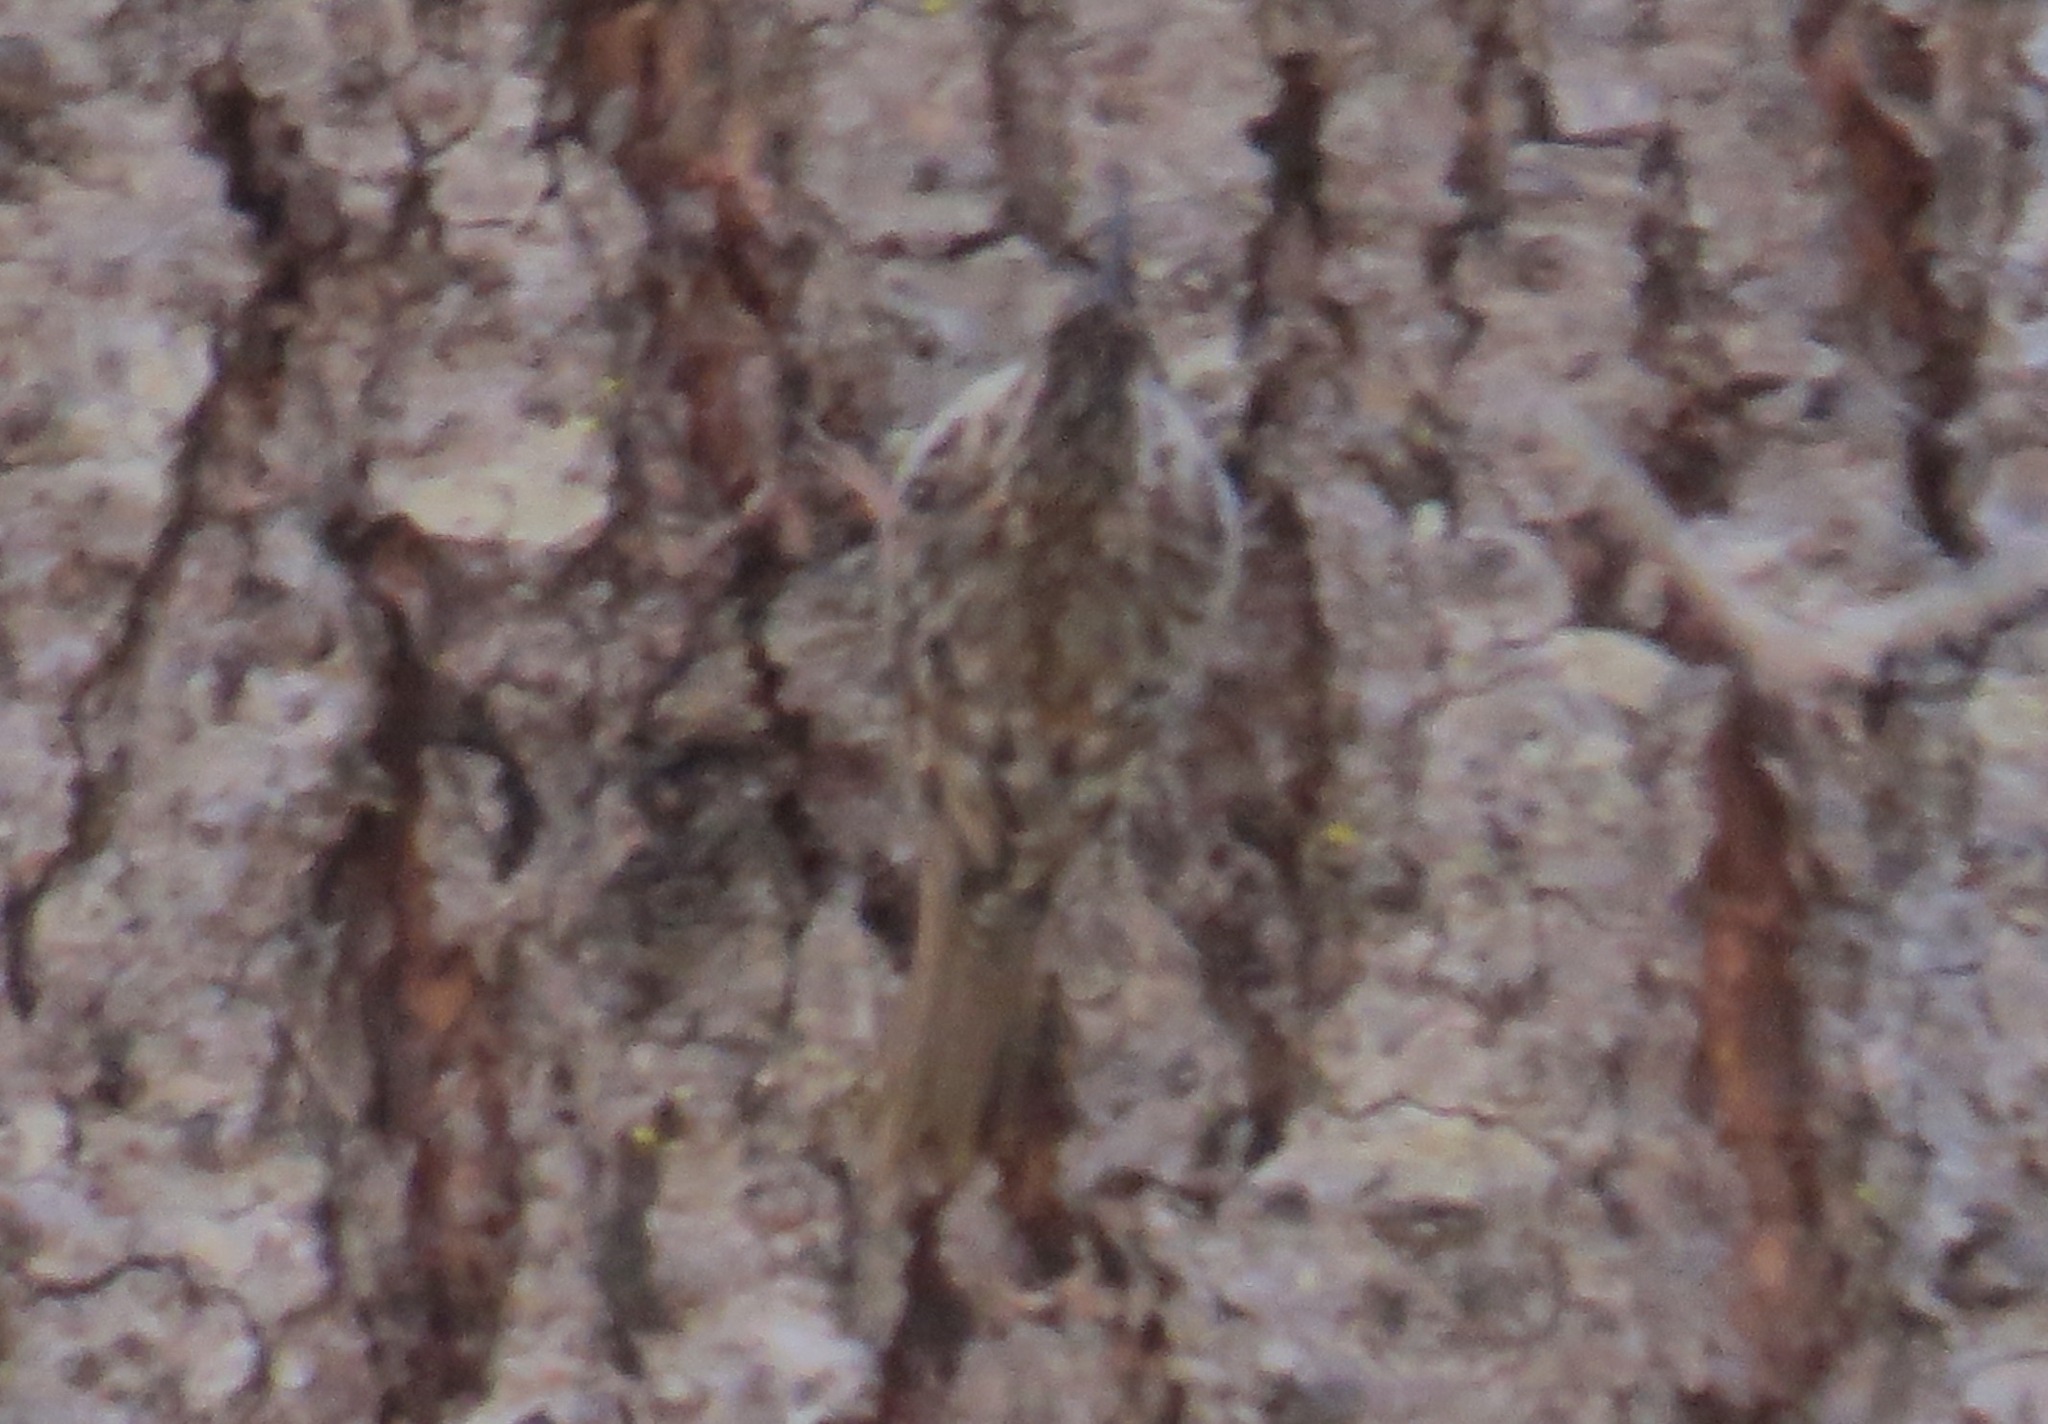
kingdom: Animalia
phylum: Chordata
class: Aves
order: Passeriformes
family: Certhiidae
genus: Certhia
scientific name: Certhia americana
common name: Brown creeper
